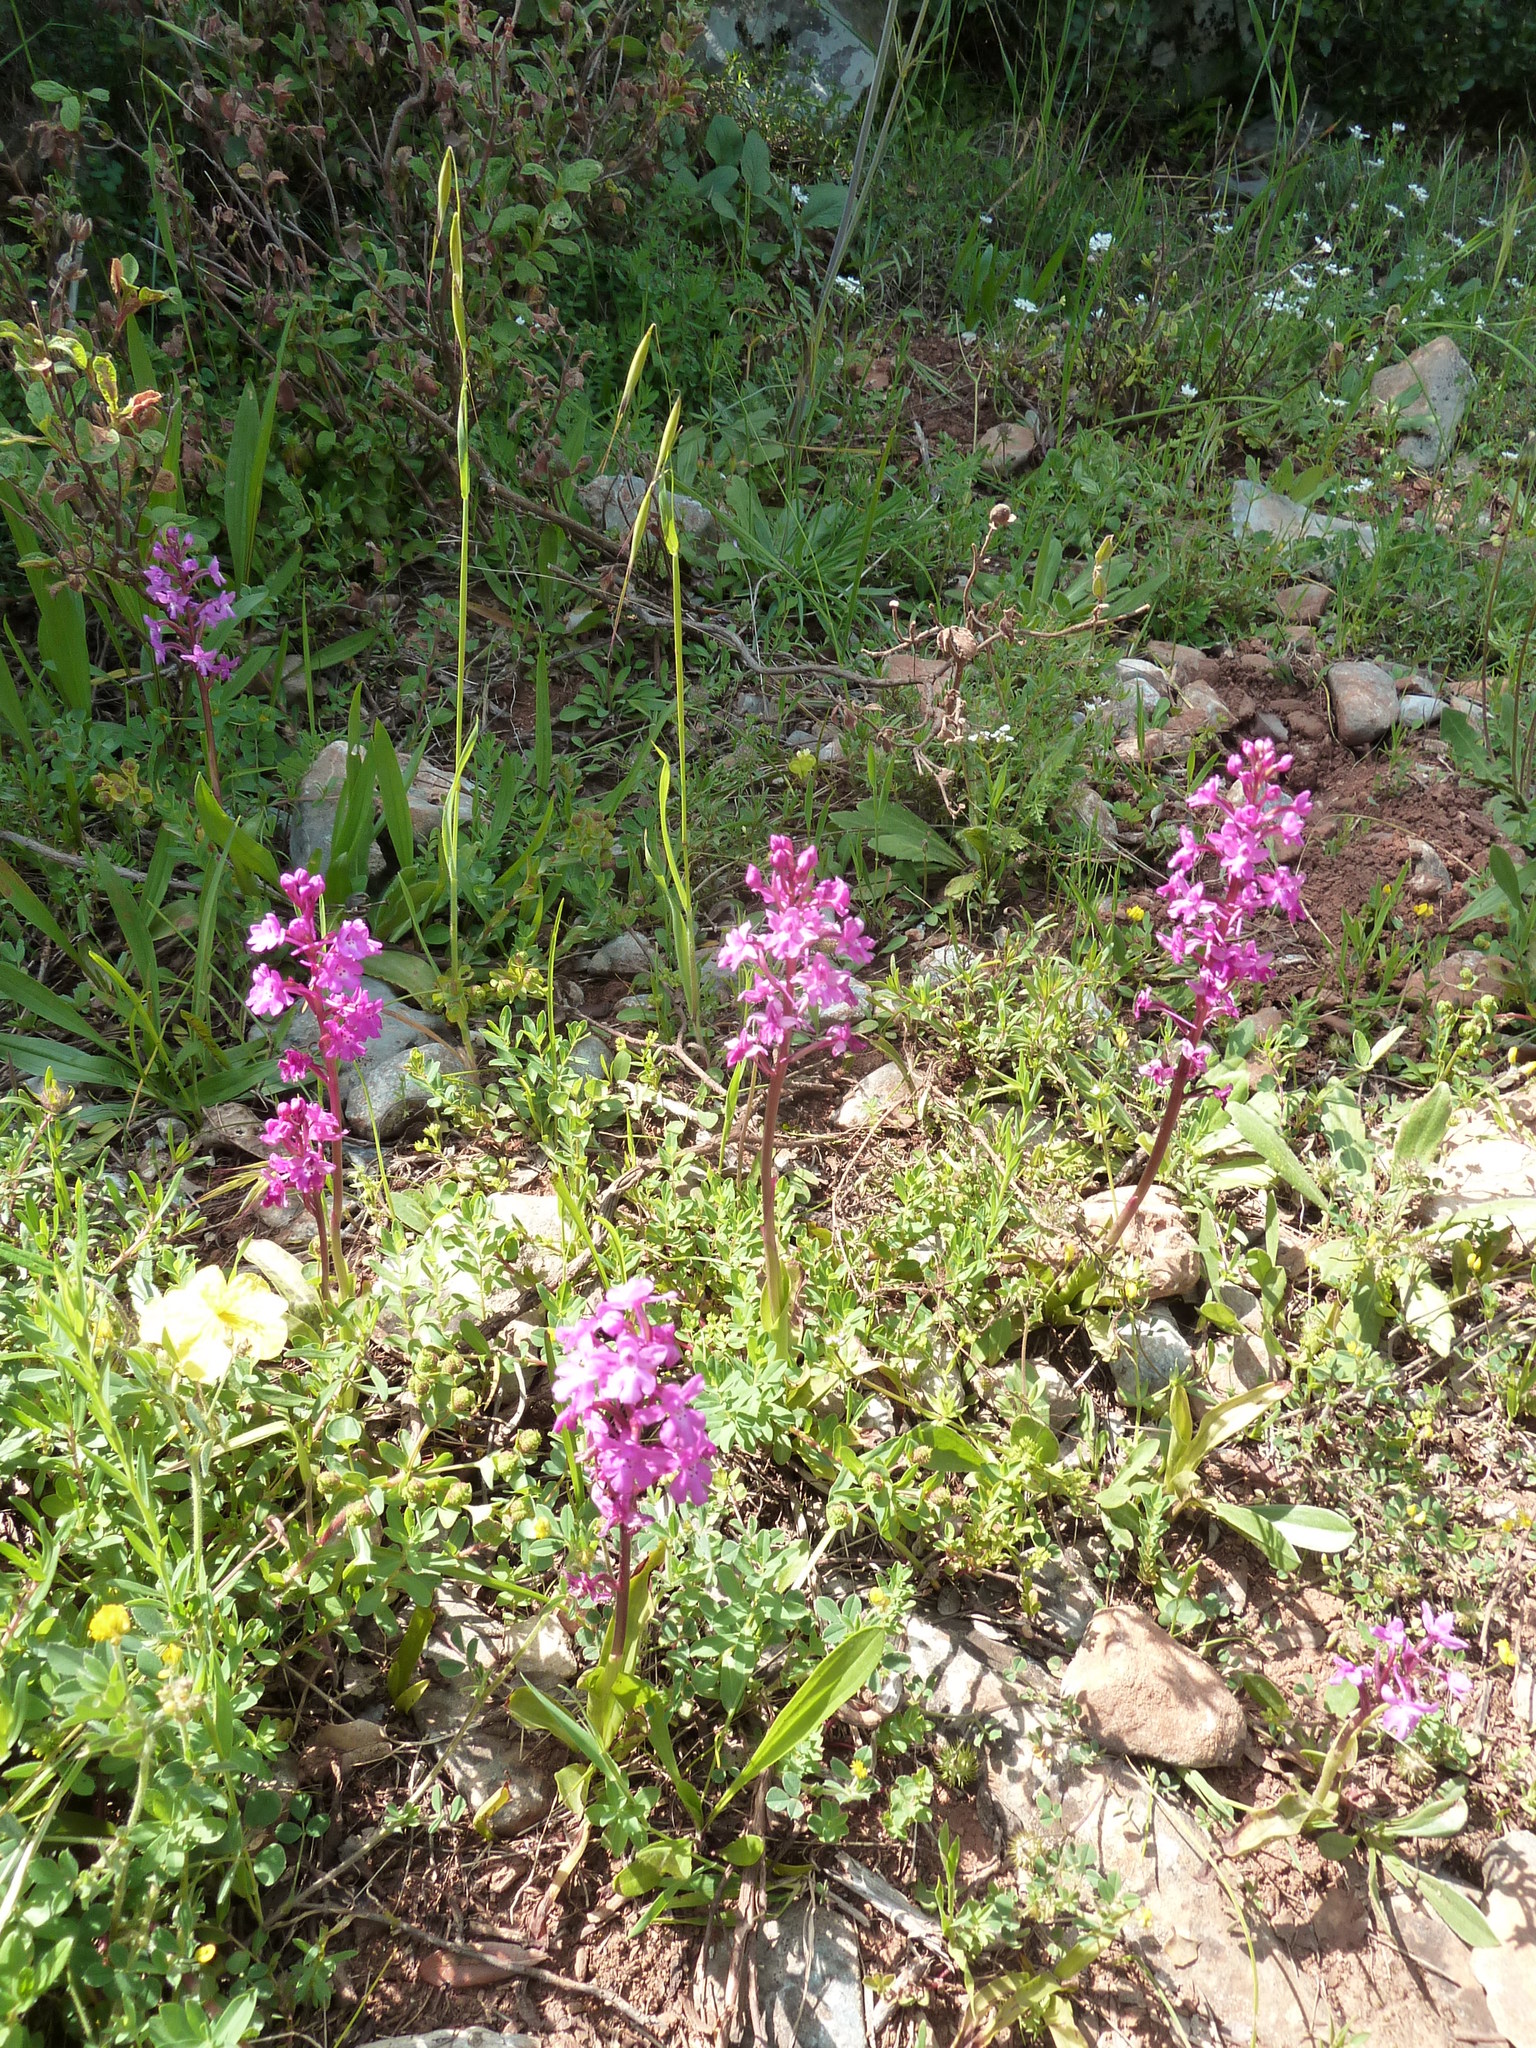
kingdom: Plantae
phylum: Tracheophyta
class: Liliopsida
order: Asparagales
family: Orchidaceae
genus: Orchis
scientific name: Orchis quadripunctata
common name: Four-spotted orchid
